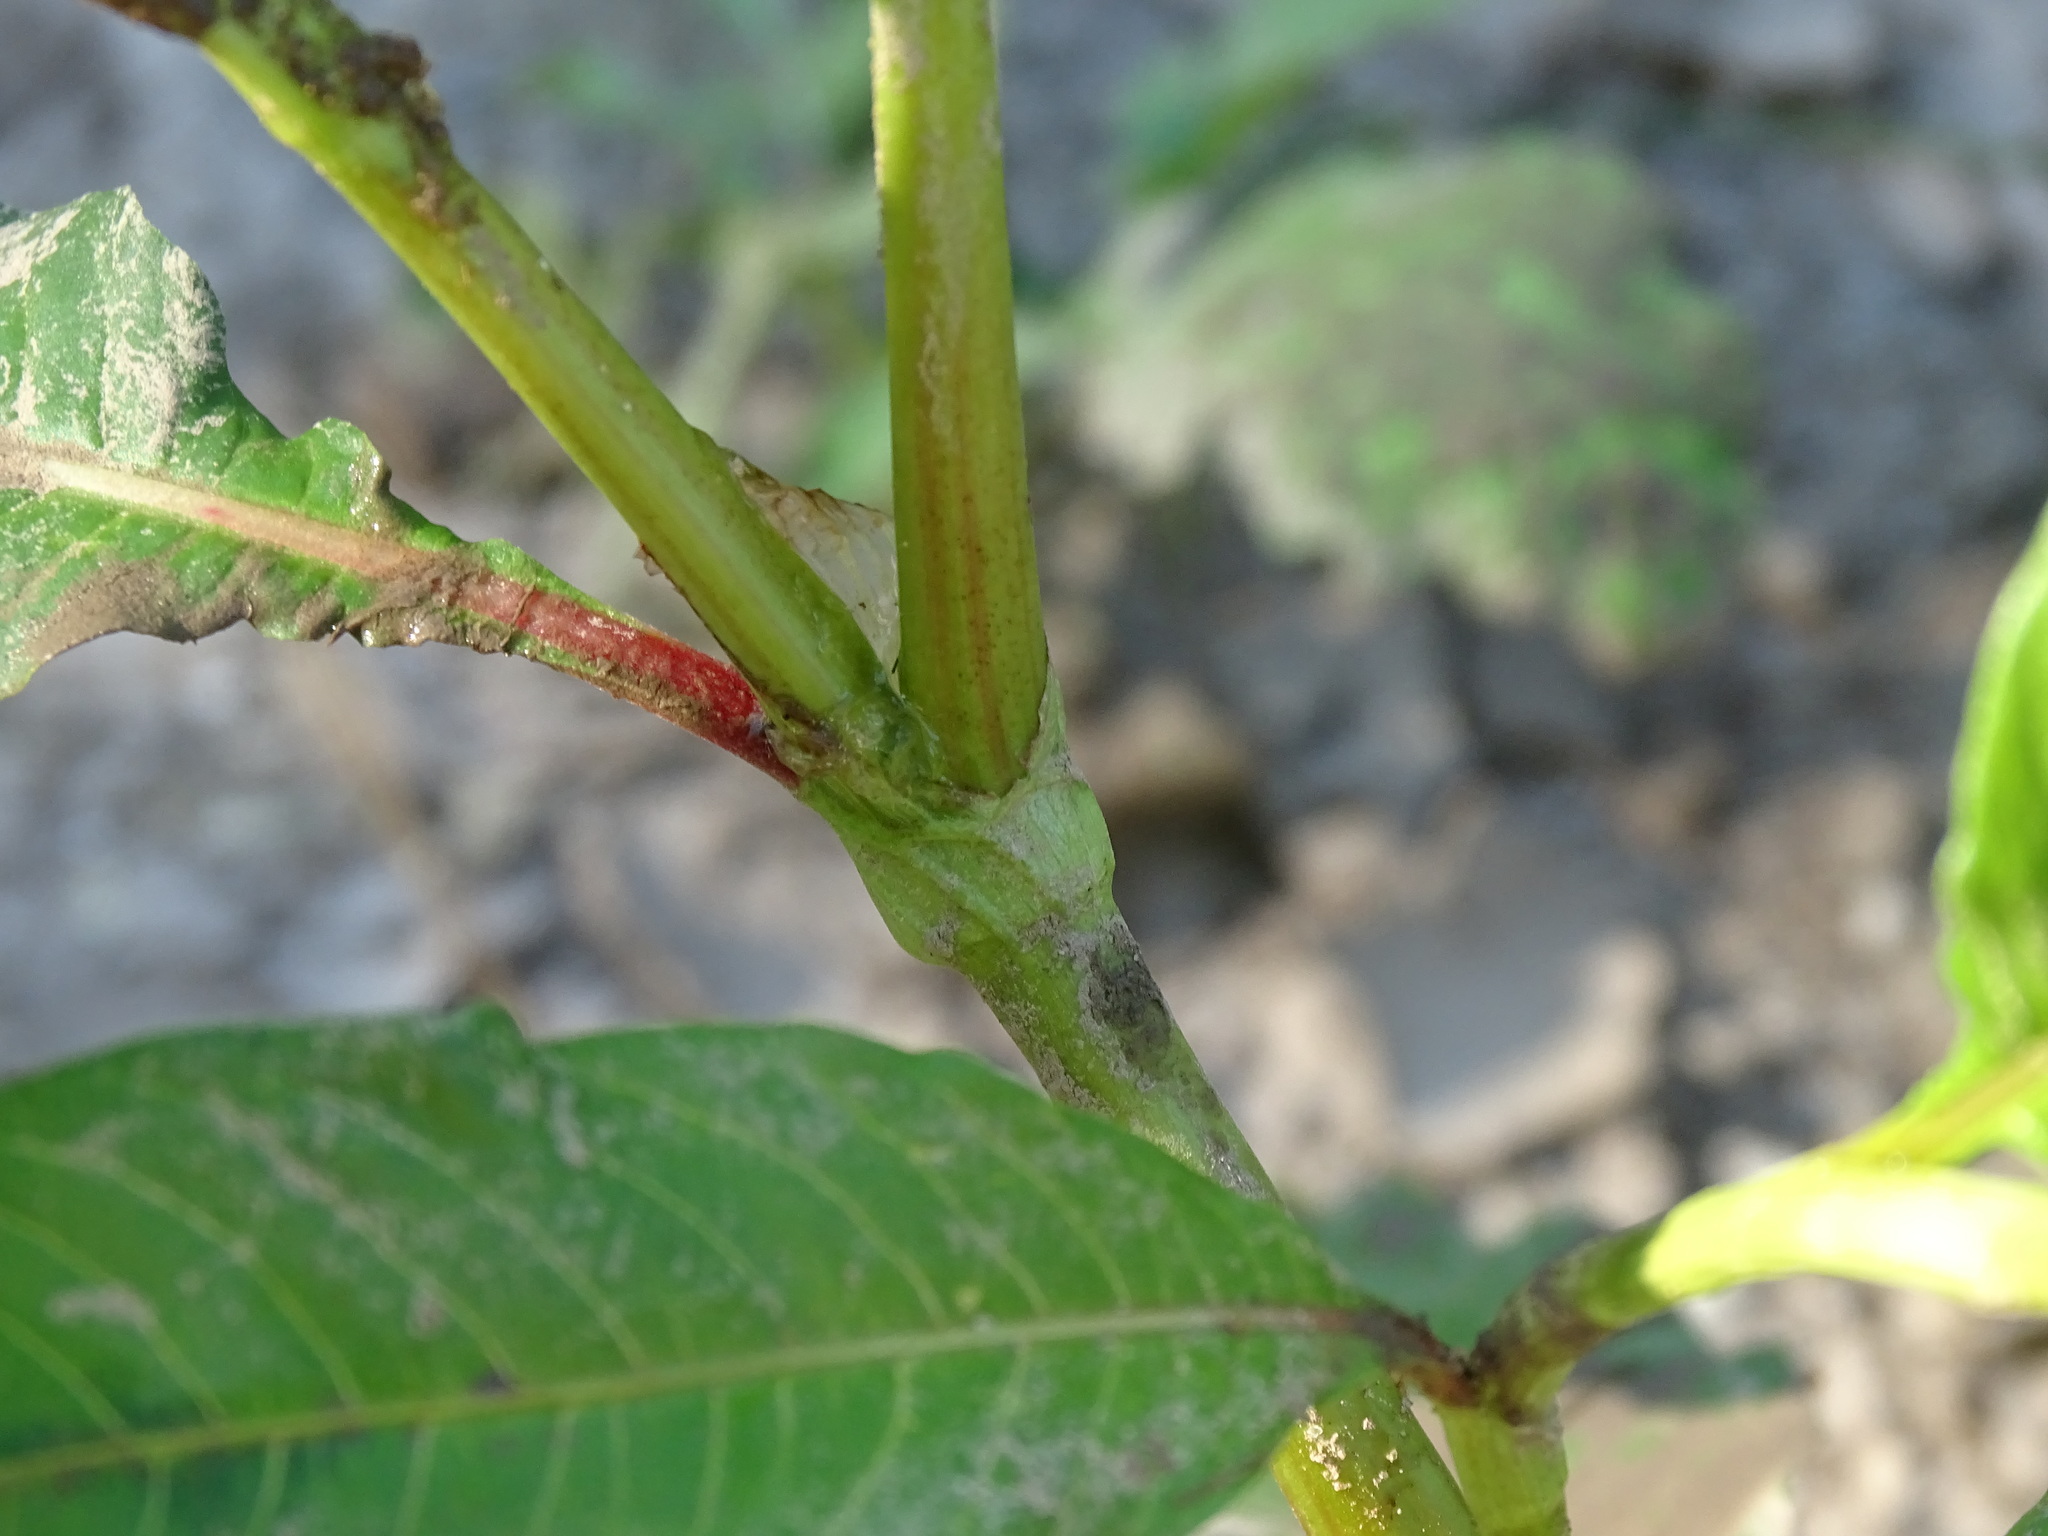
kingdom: Plantae
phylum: Tracheophyta
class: Magnoliopsida
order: Caryophyllales
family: Polygonaceae
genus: Persicaria
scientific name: Persicaria lapathifolia
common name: Curlytop knotweed
